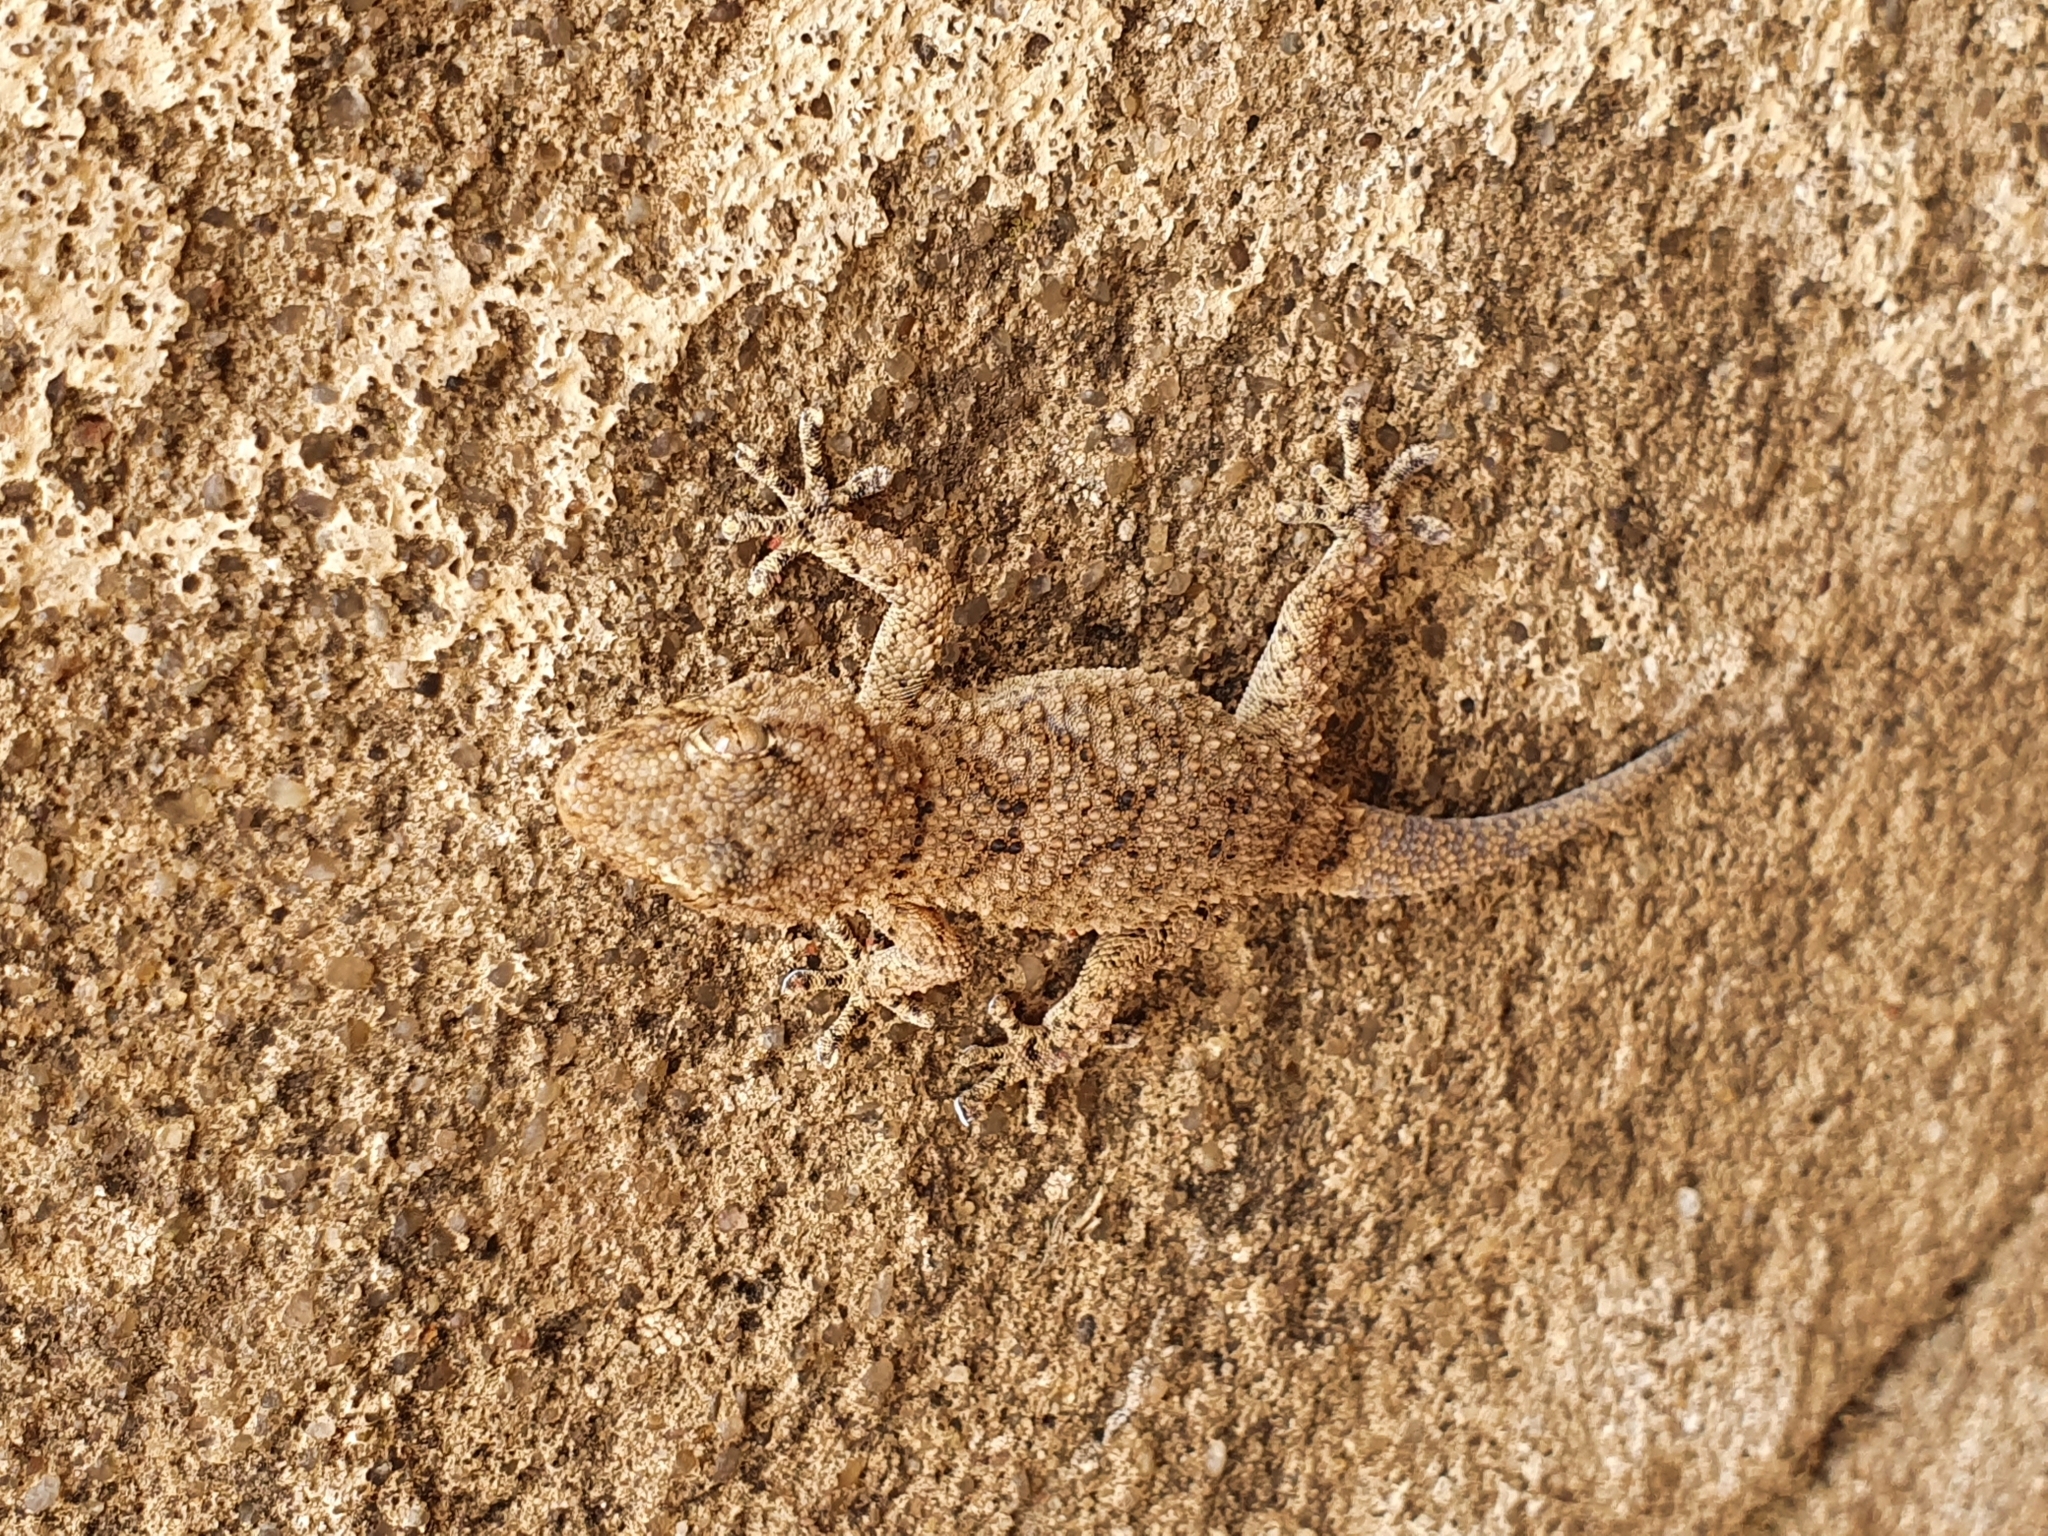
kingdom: Animalia
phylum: Chordata
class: Squamata
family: Phyllodactylidae
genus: Tarentola
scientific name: Tarentola mauritanica
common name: Moorish gecko
